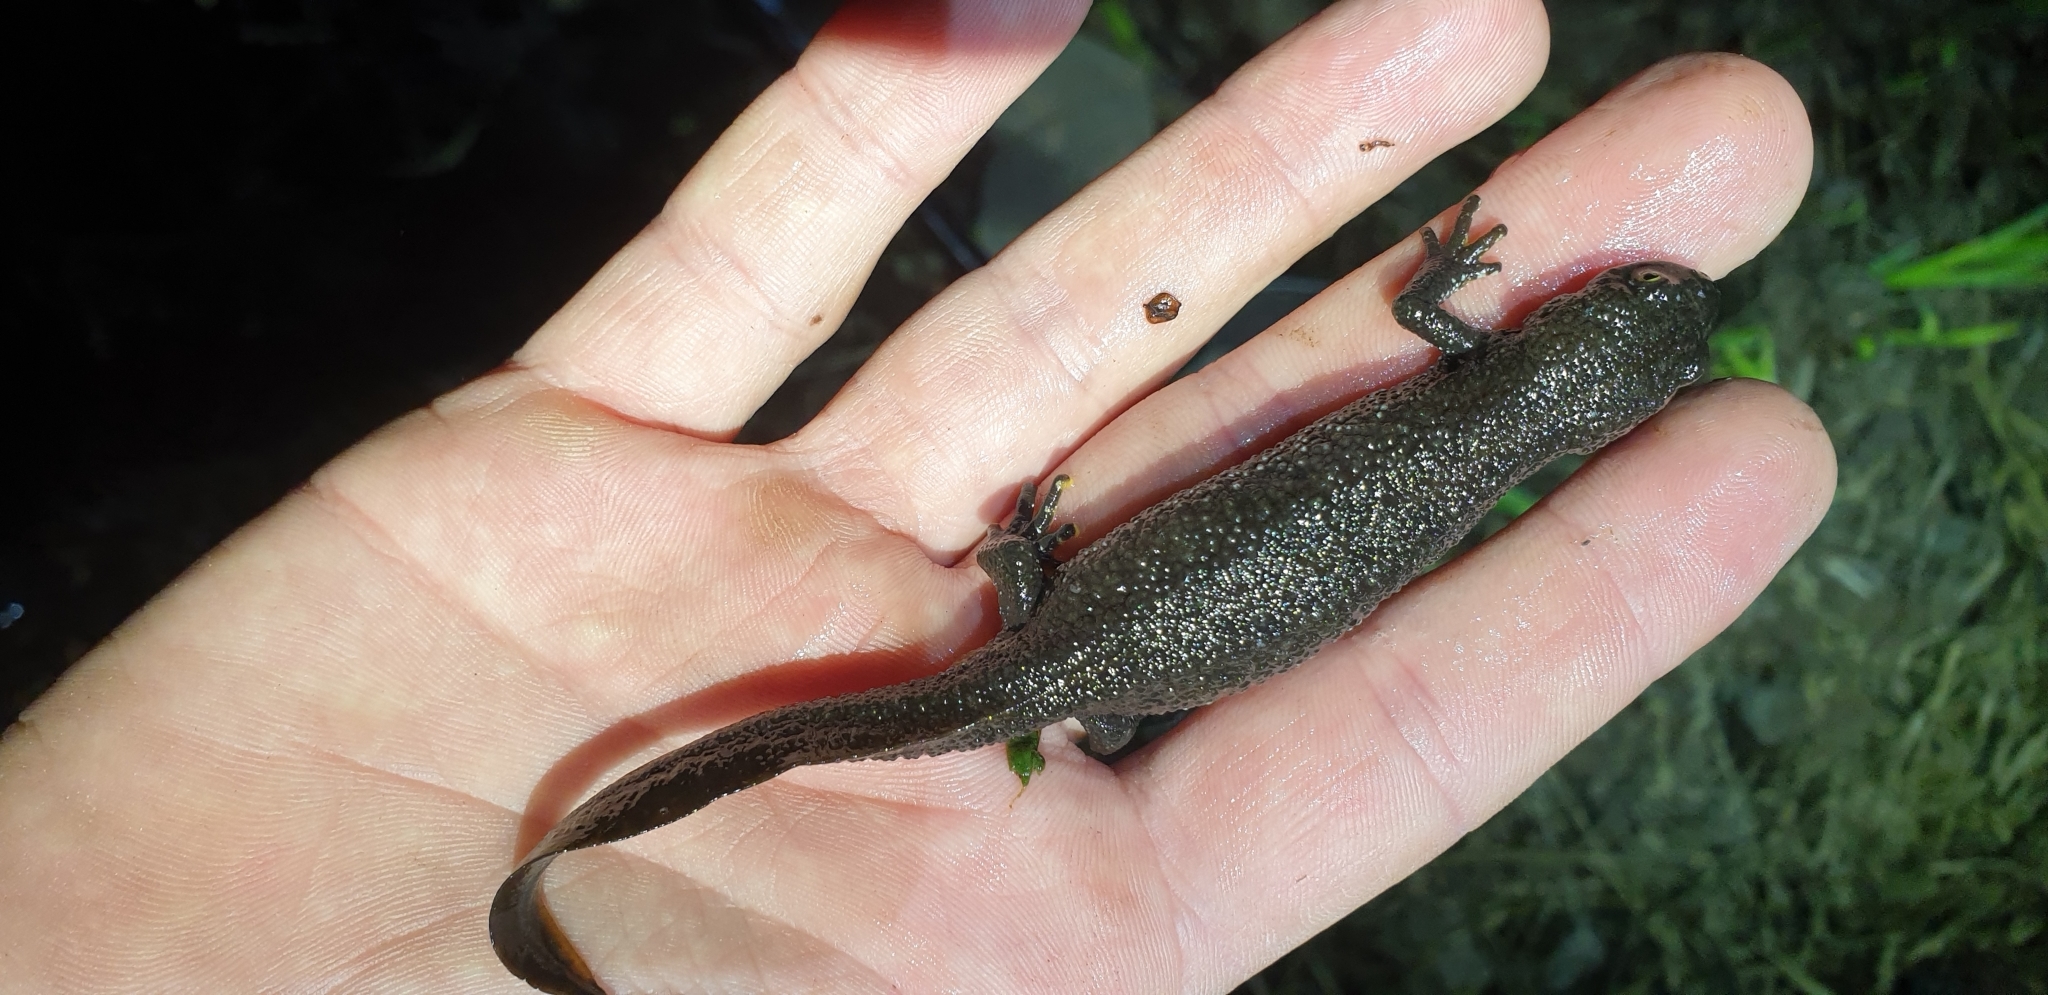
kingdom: Animalia
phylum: Chordata
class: Amphibia
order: Caudata
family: Salamandridae
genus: Triturus
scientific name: Triturus cristatus
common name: Crested newt
